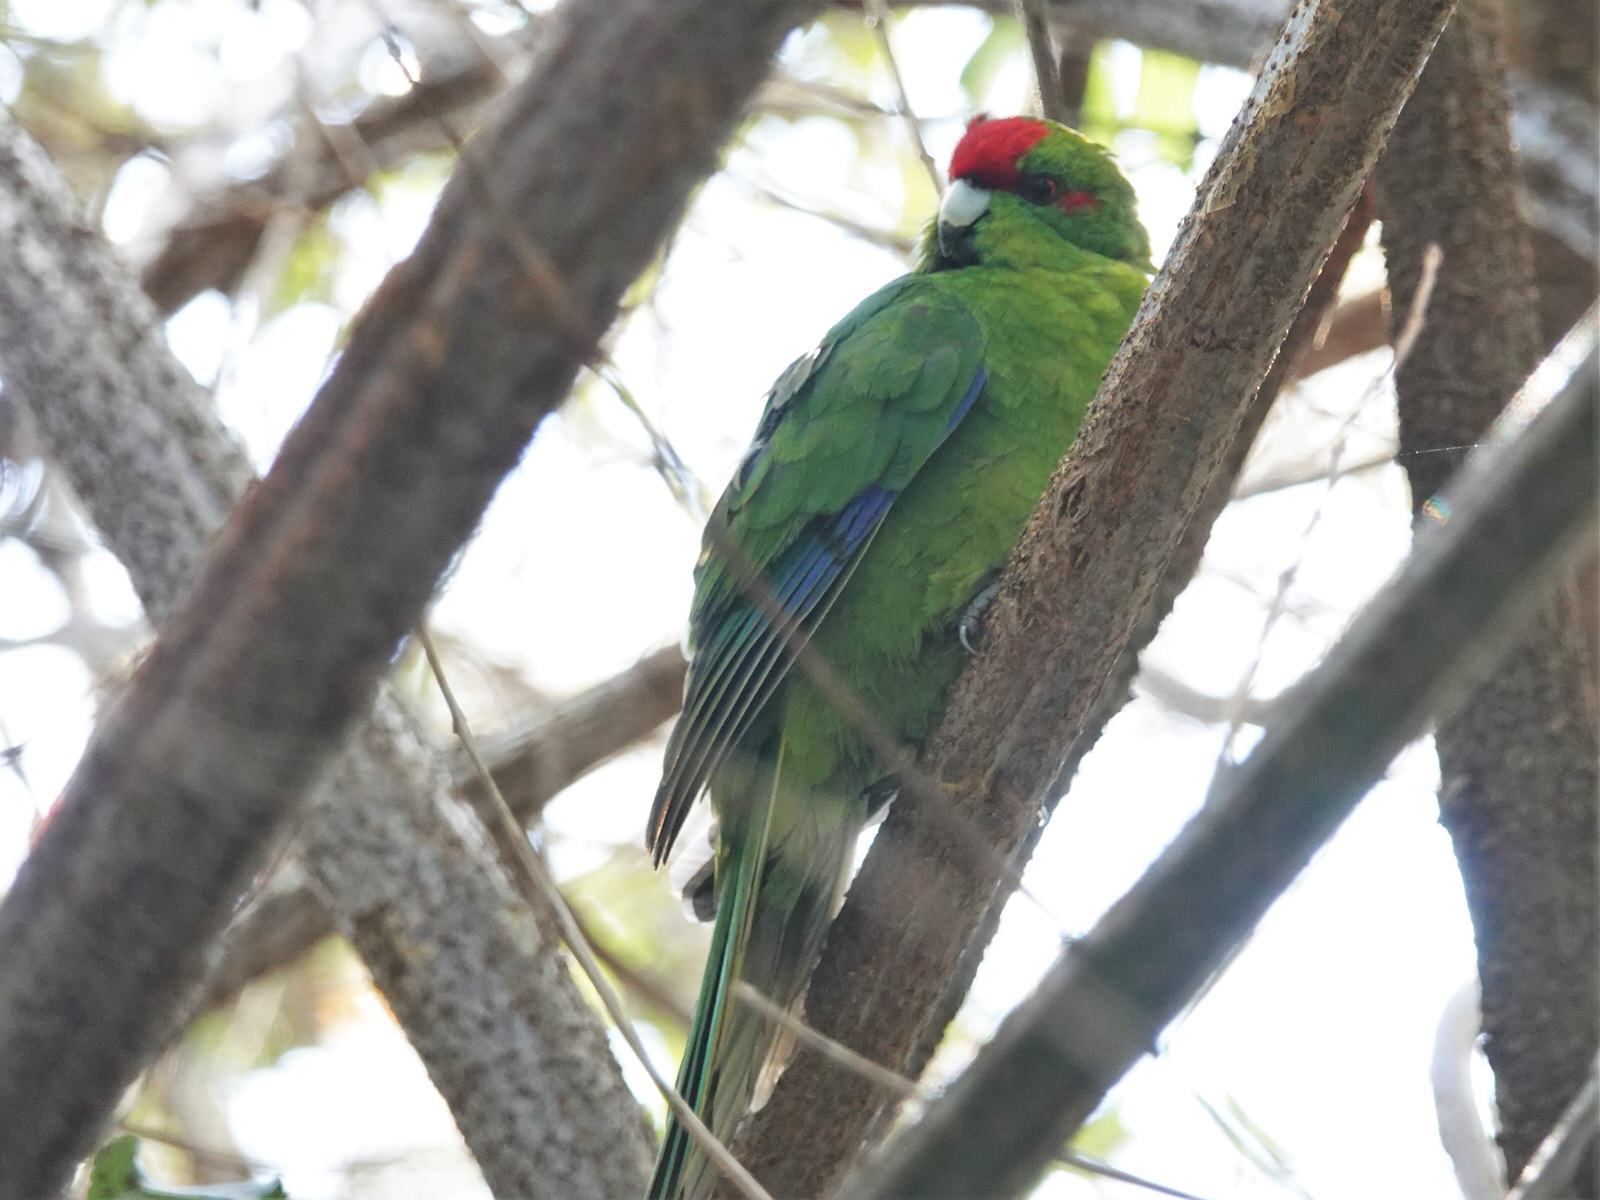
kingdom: Animalia
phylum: Chordata
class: Aves
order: Psittaciformes
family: Psittacidae
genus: Cyanoramphus
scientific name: Cyanoramphus novaezelandiae
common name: Red-fronted parakeet
